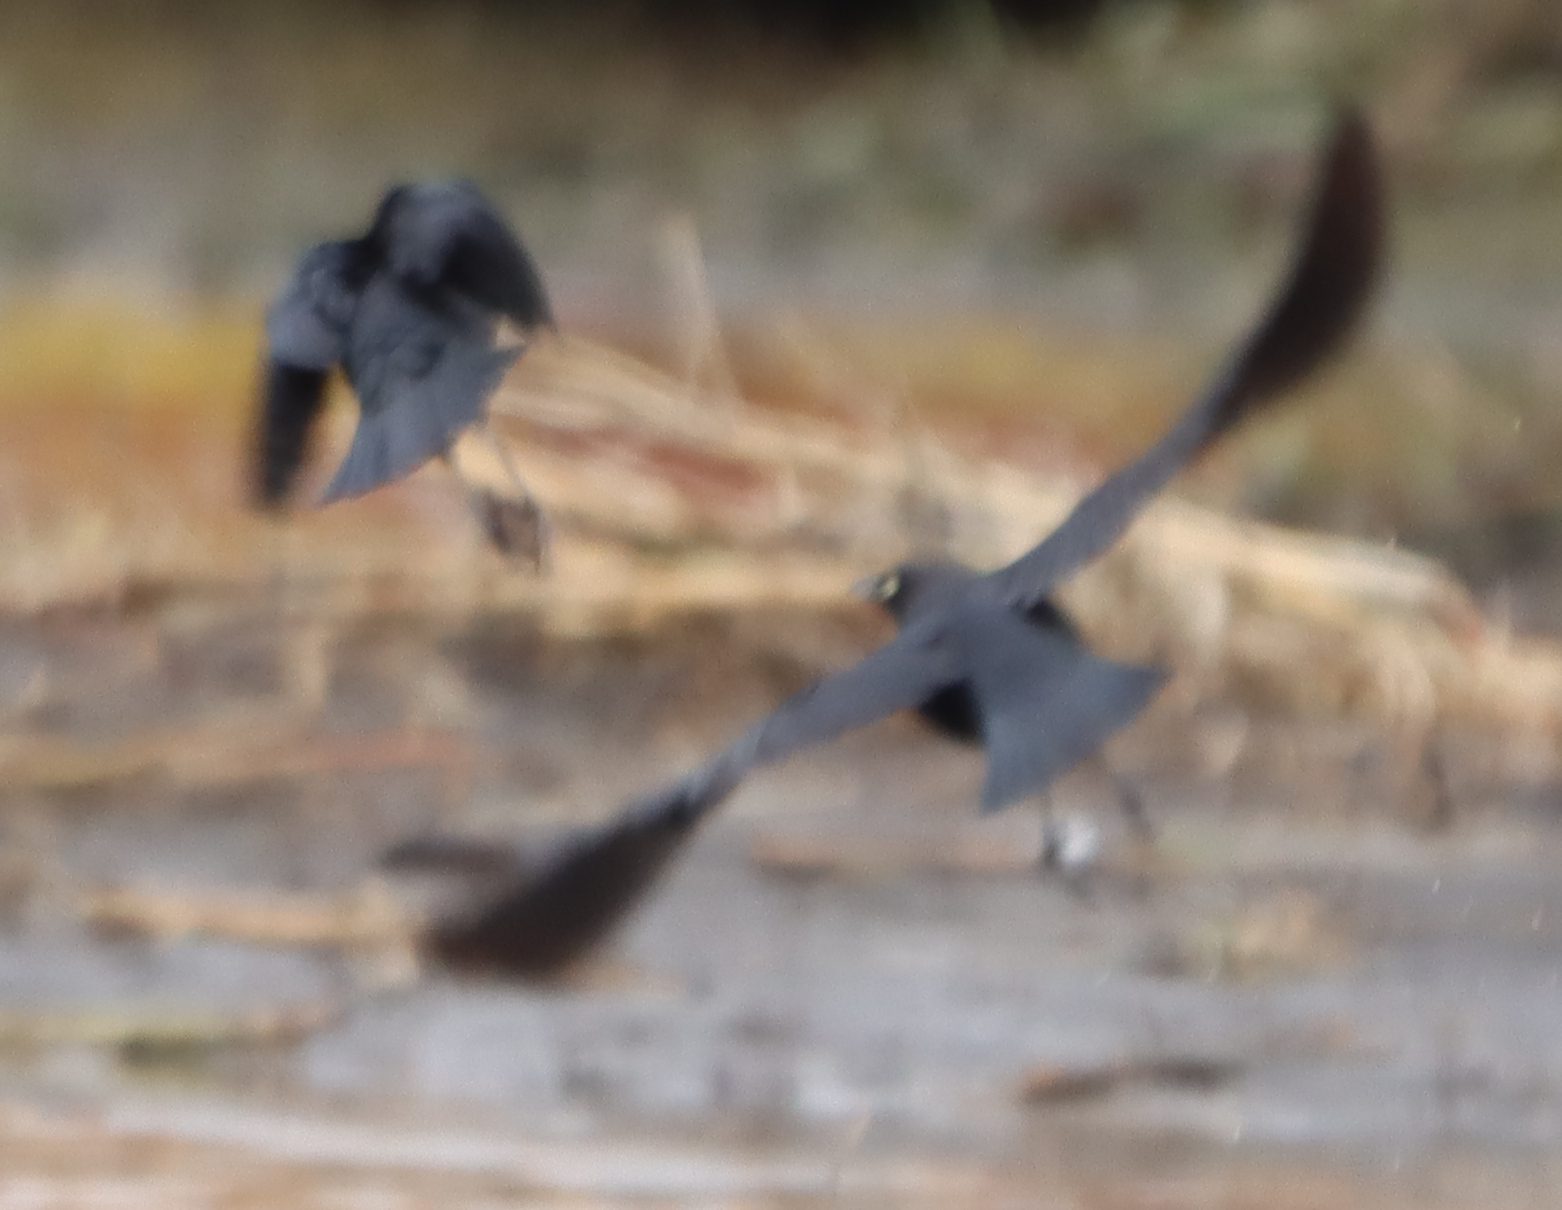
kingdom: Animalia
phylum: Chordata
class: Aves
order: Passeriformes
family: Icteridae
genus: Euphagus
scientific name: Euphagus cyanocephalus
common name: Brewer's blackbird
